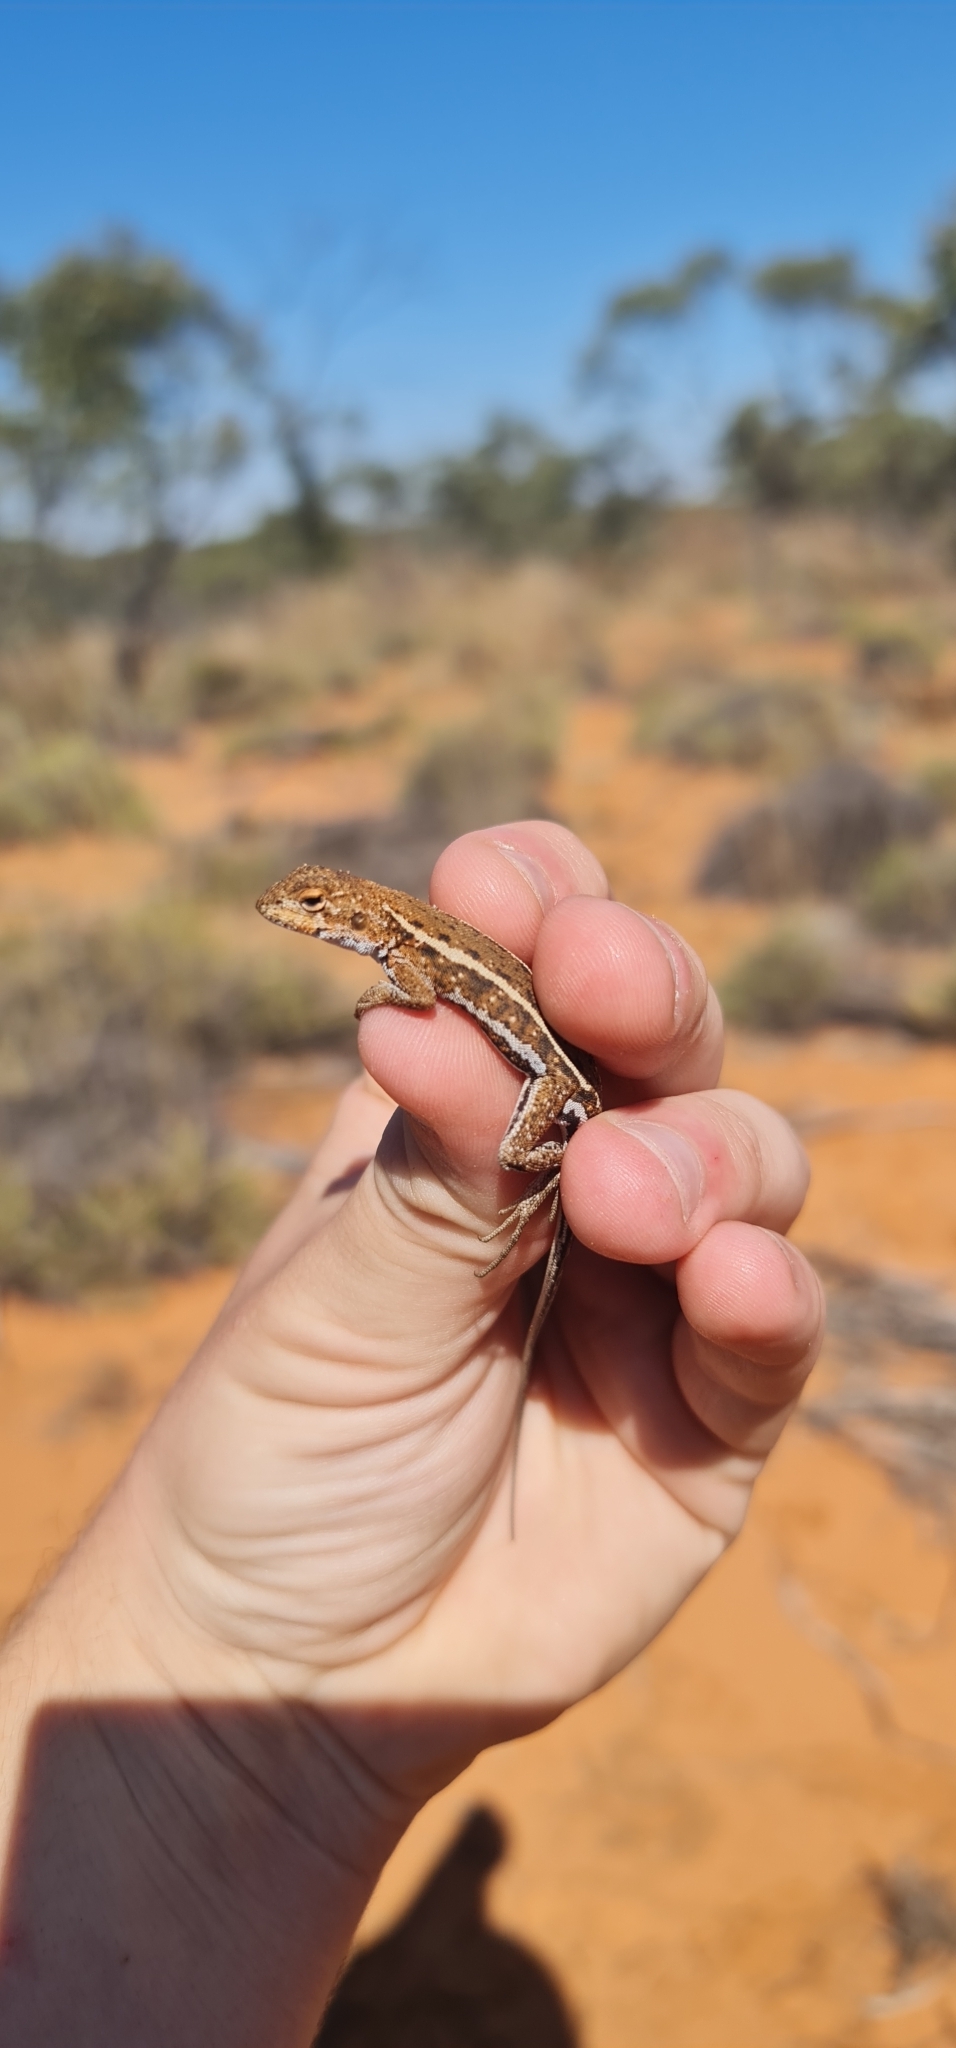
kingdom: Animalia
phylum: Chordata
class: Squamata
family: Agamidae
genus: Ctenophorus
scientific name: Ctenophorus spinodomus
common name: Eastern mallee dragon
